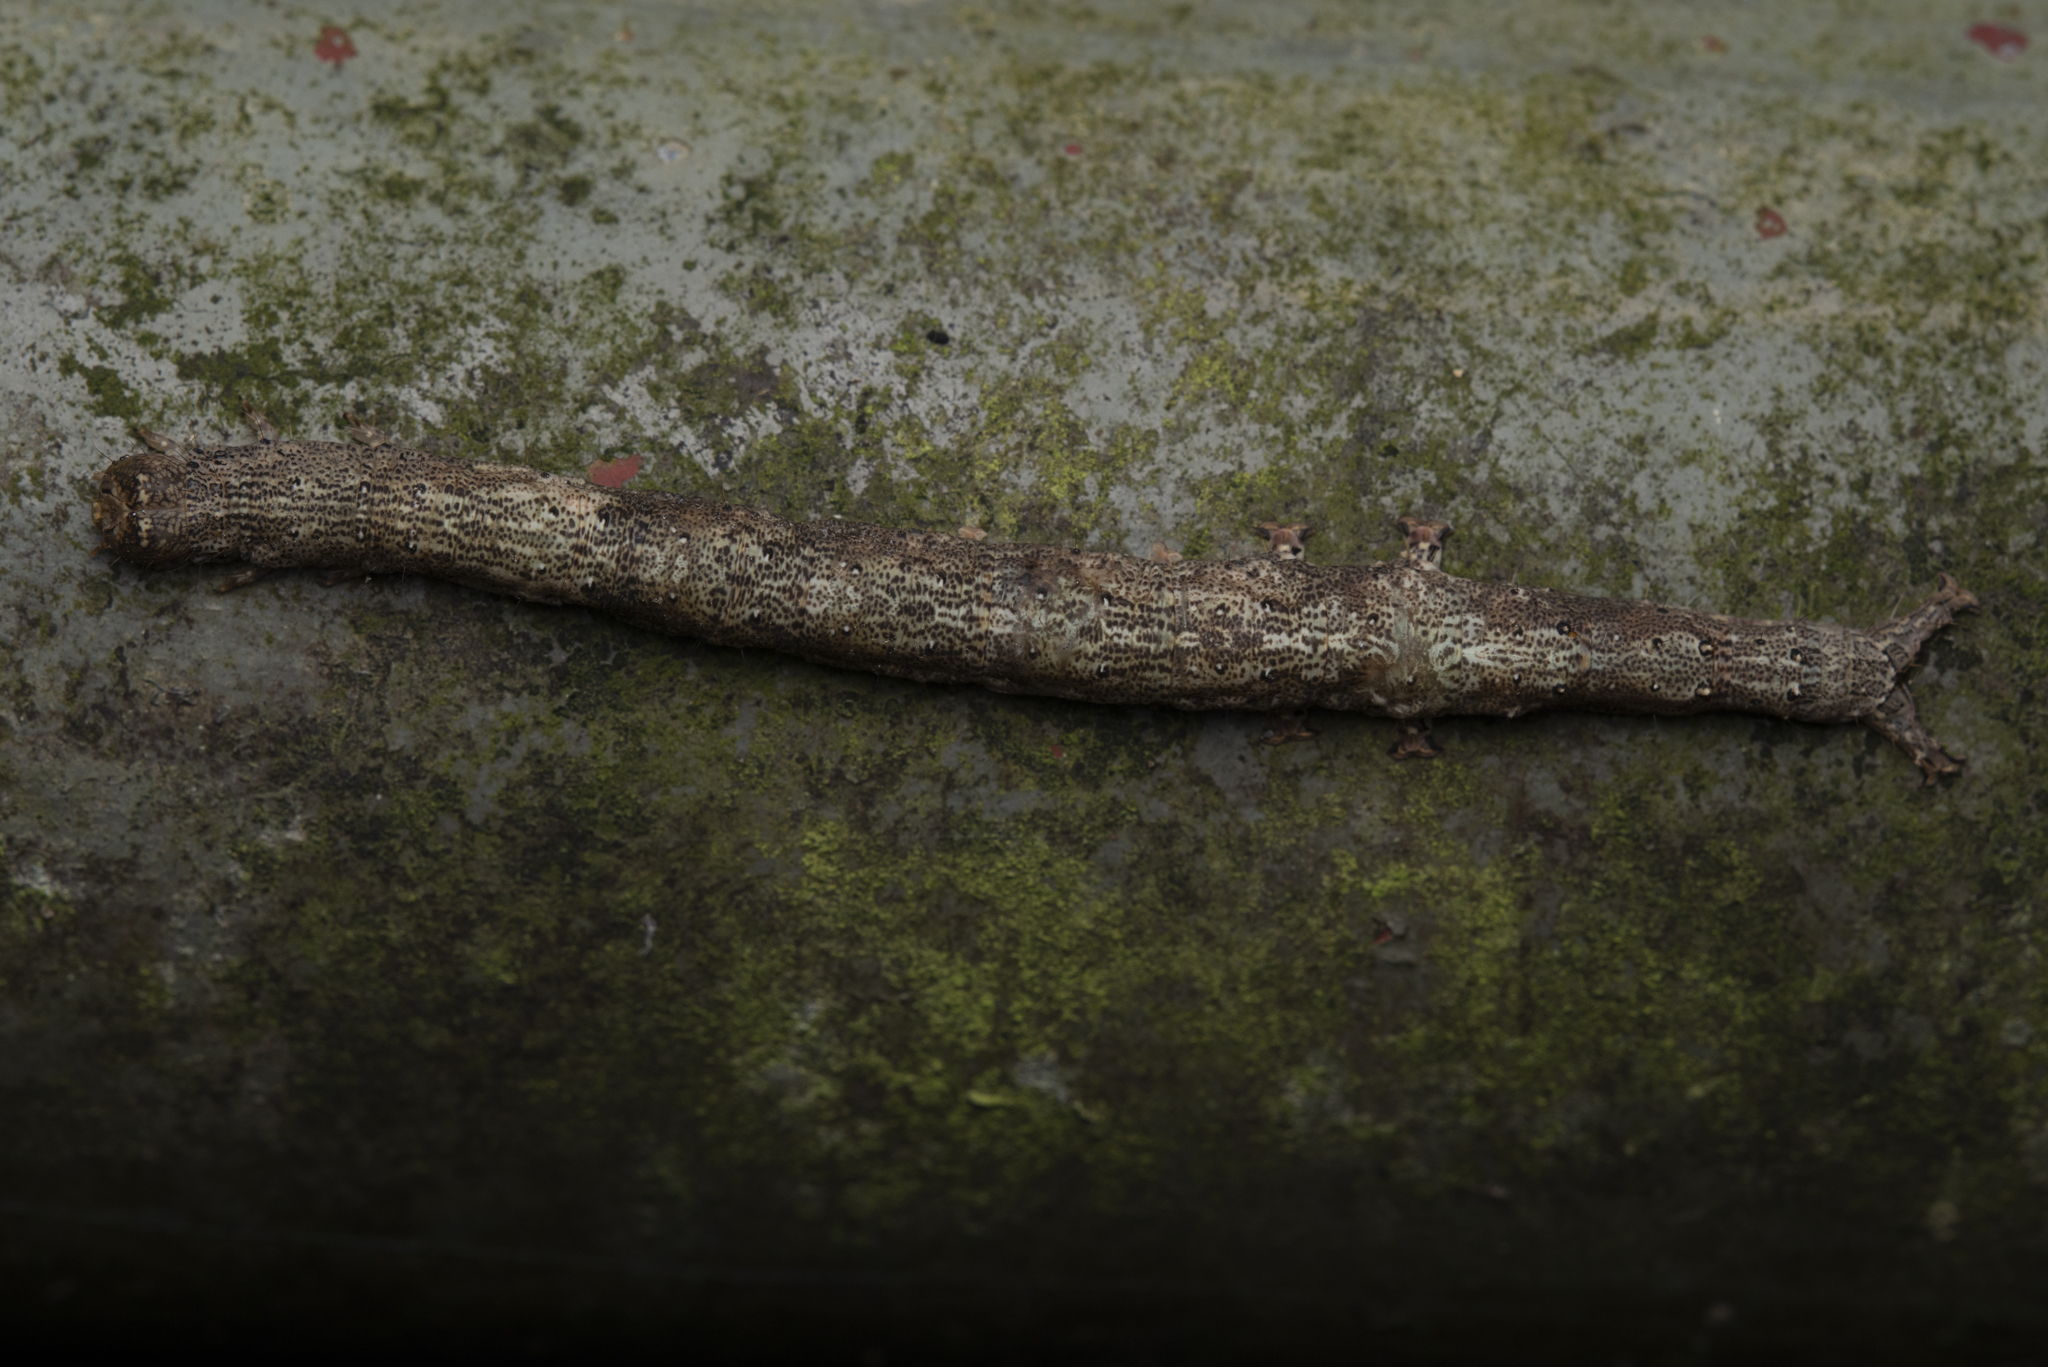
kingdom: Animalia
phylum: Arthropoda
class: Insecta
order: Lepidoptera
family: Erebidae
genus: Dysgonia
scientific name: Dysgonia stuposa
